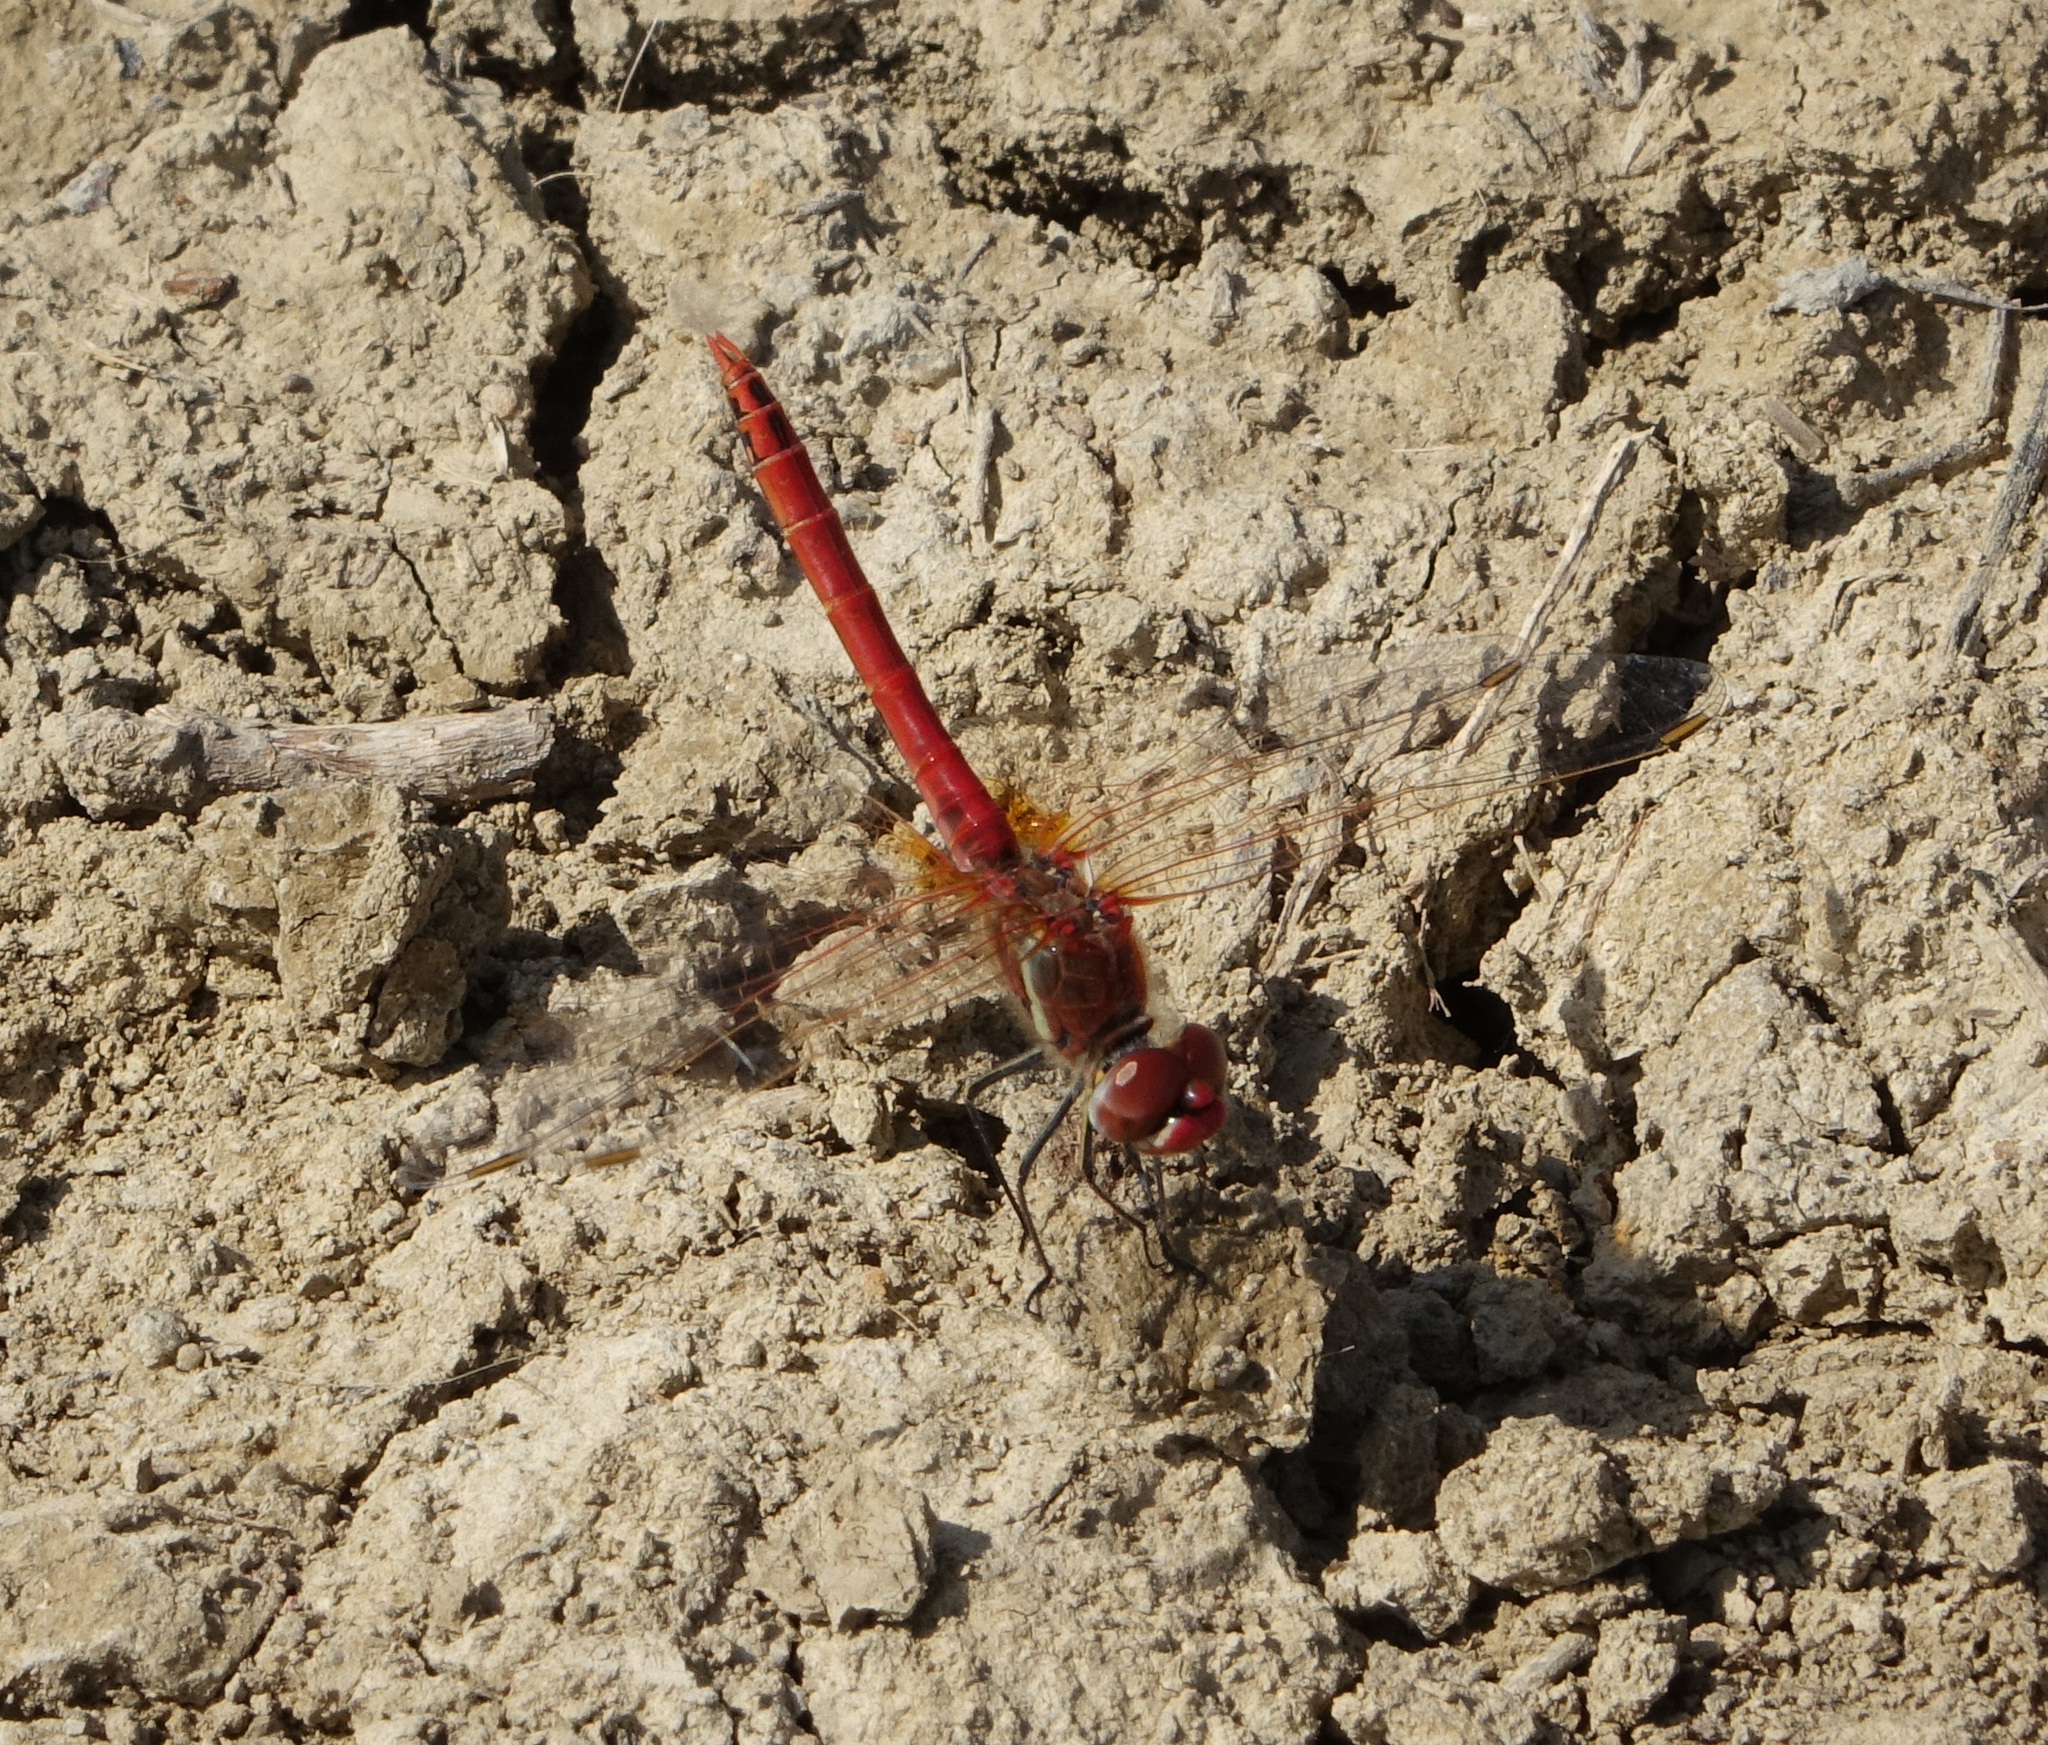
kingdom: Animalia
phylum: Arthropoda
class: Insecta
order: Odonata
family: Libellulidae
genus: Sympetrum
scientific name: Sympetrum fonscolombii
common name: Red-veined darter
